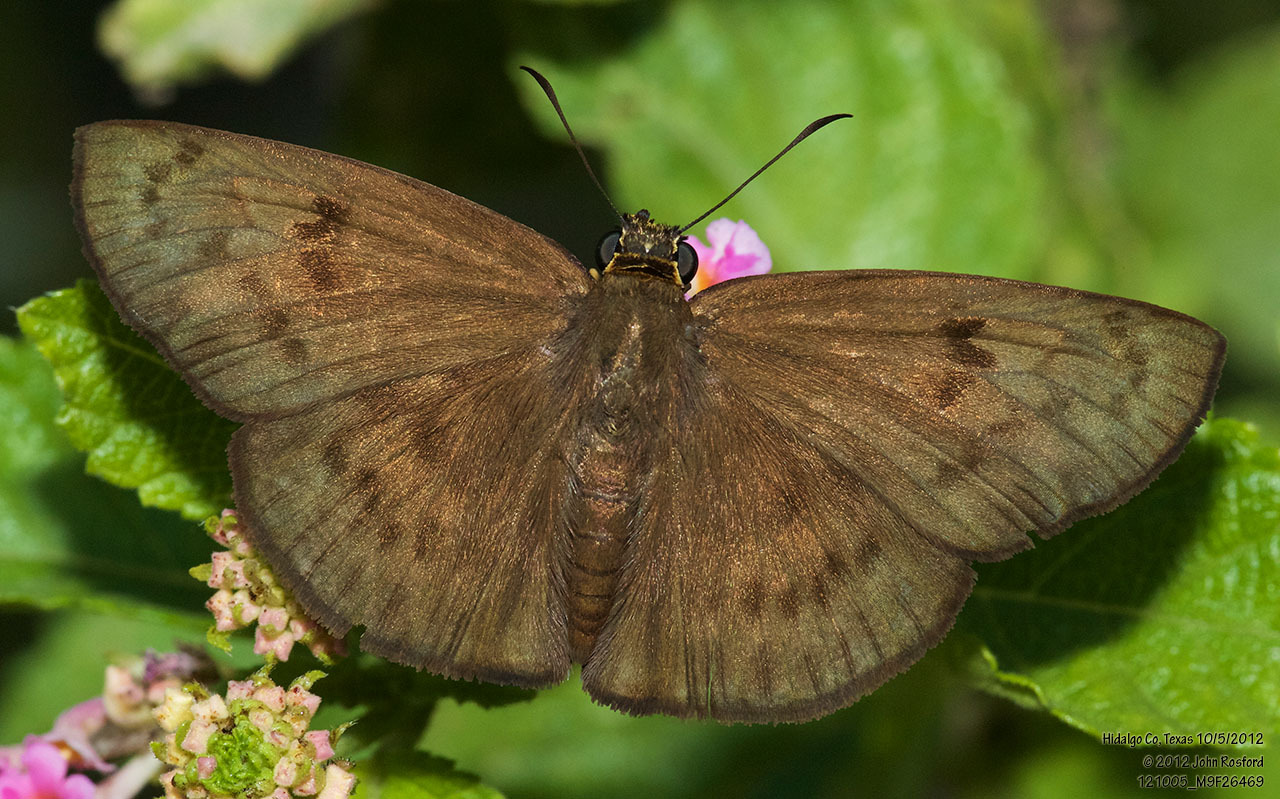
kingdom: Animalia
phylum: Arthropoda
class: Insecta
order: Lepidoptera
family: Hesperiidae
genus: Grais
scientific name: Grais stigmaticus
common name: Hermit skipper
